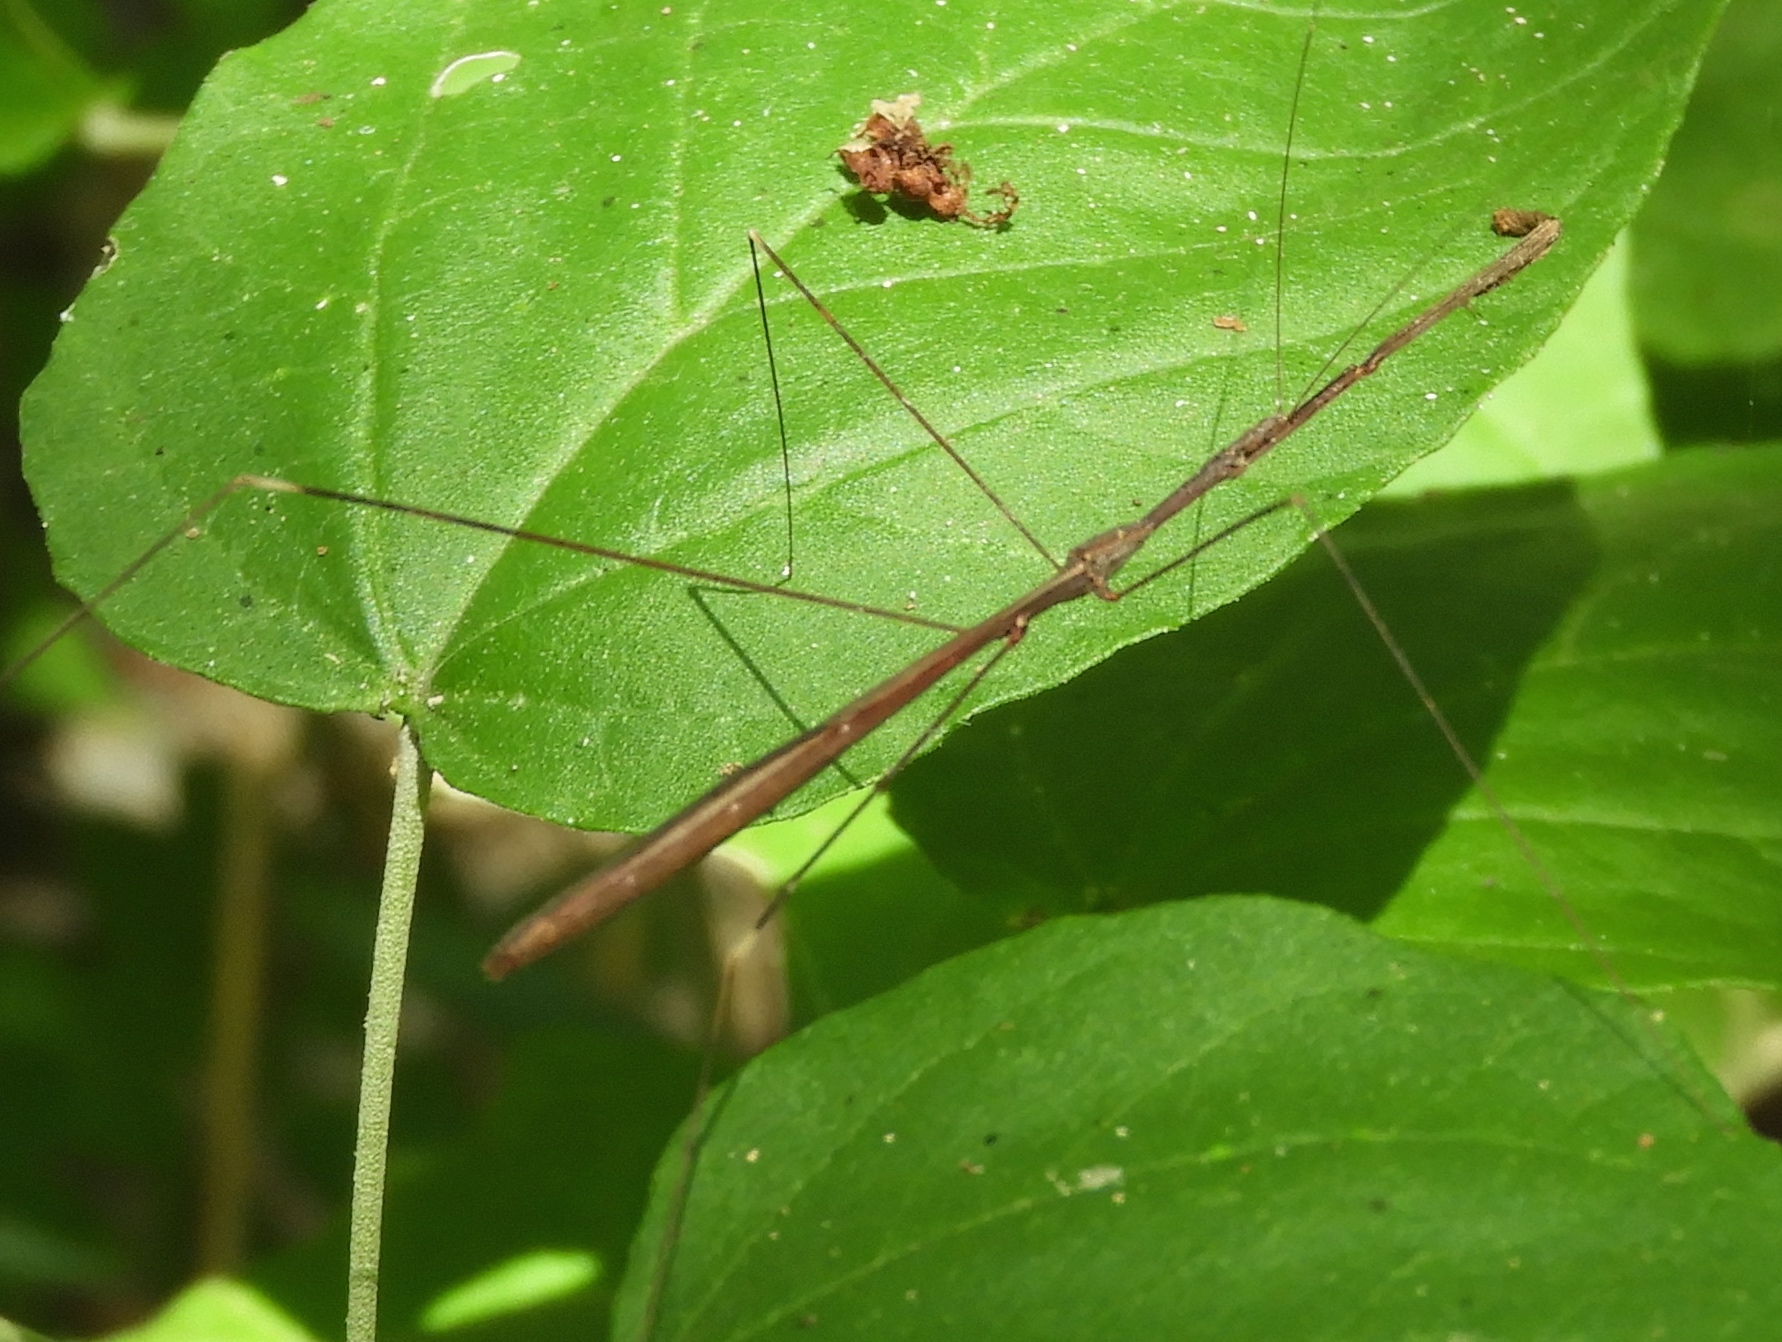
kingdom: Animalia
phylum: Arthropoda
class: Insecta
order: Hemiptera
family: Reduviidae
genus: Emesaya
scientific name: Emesaya brevipennis
